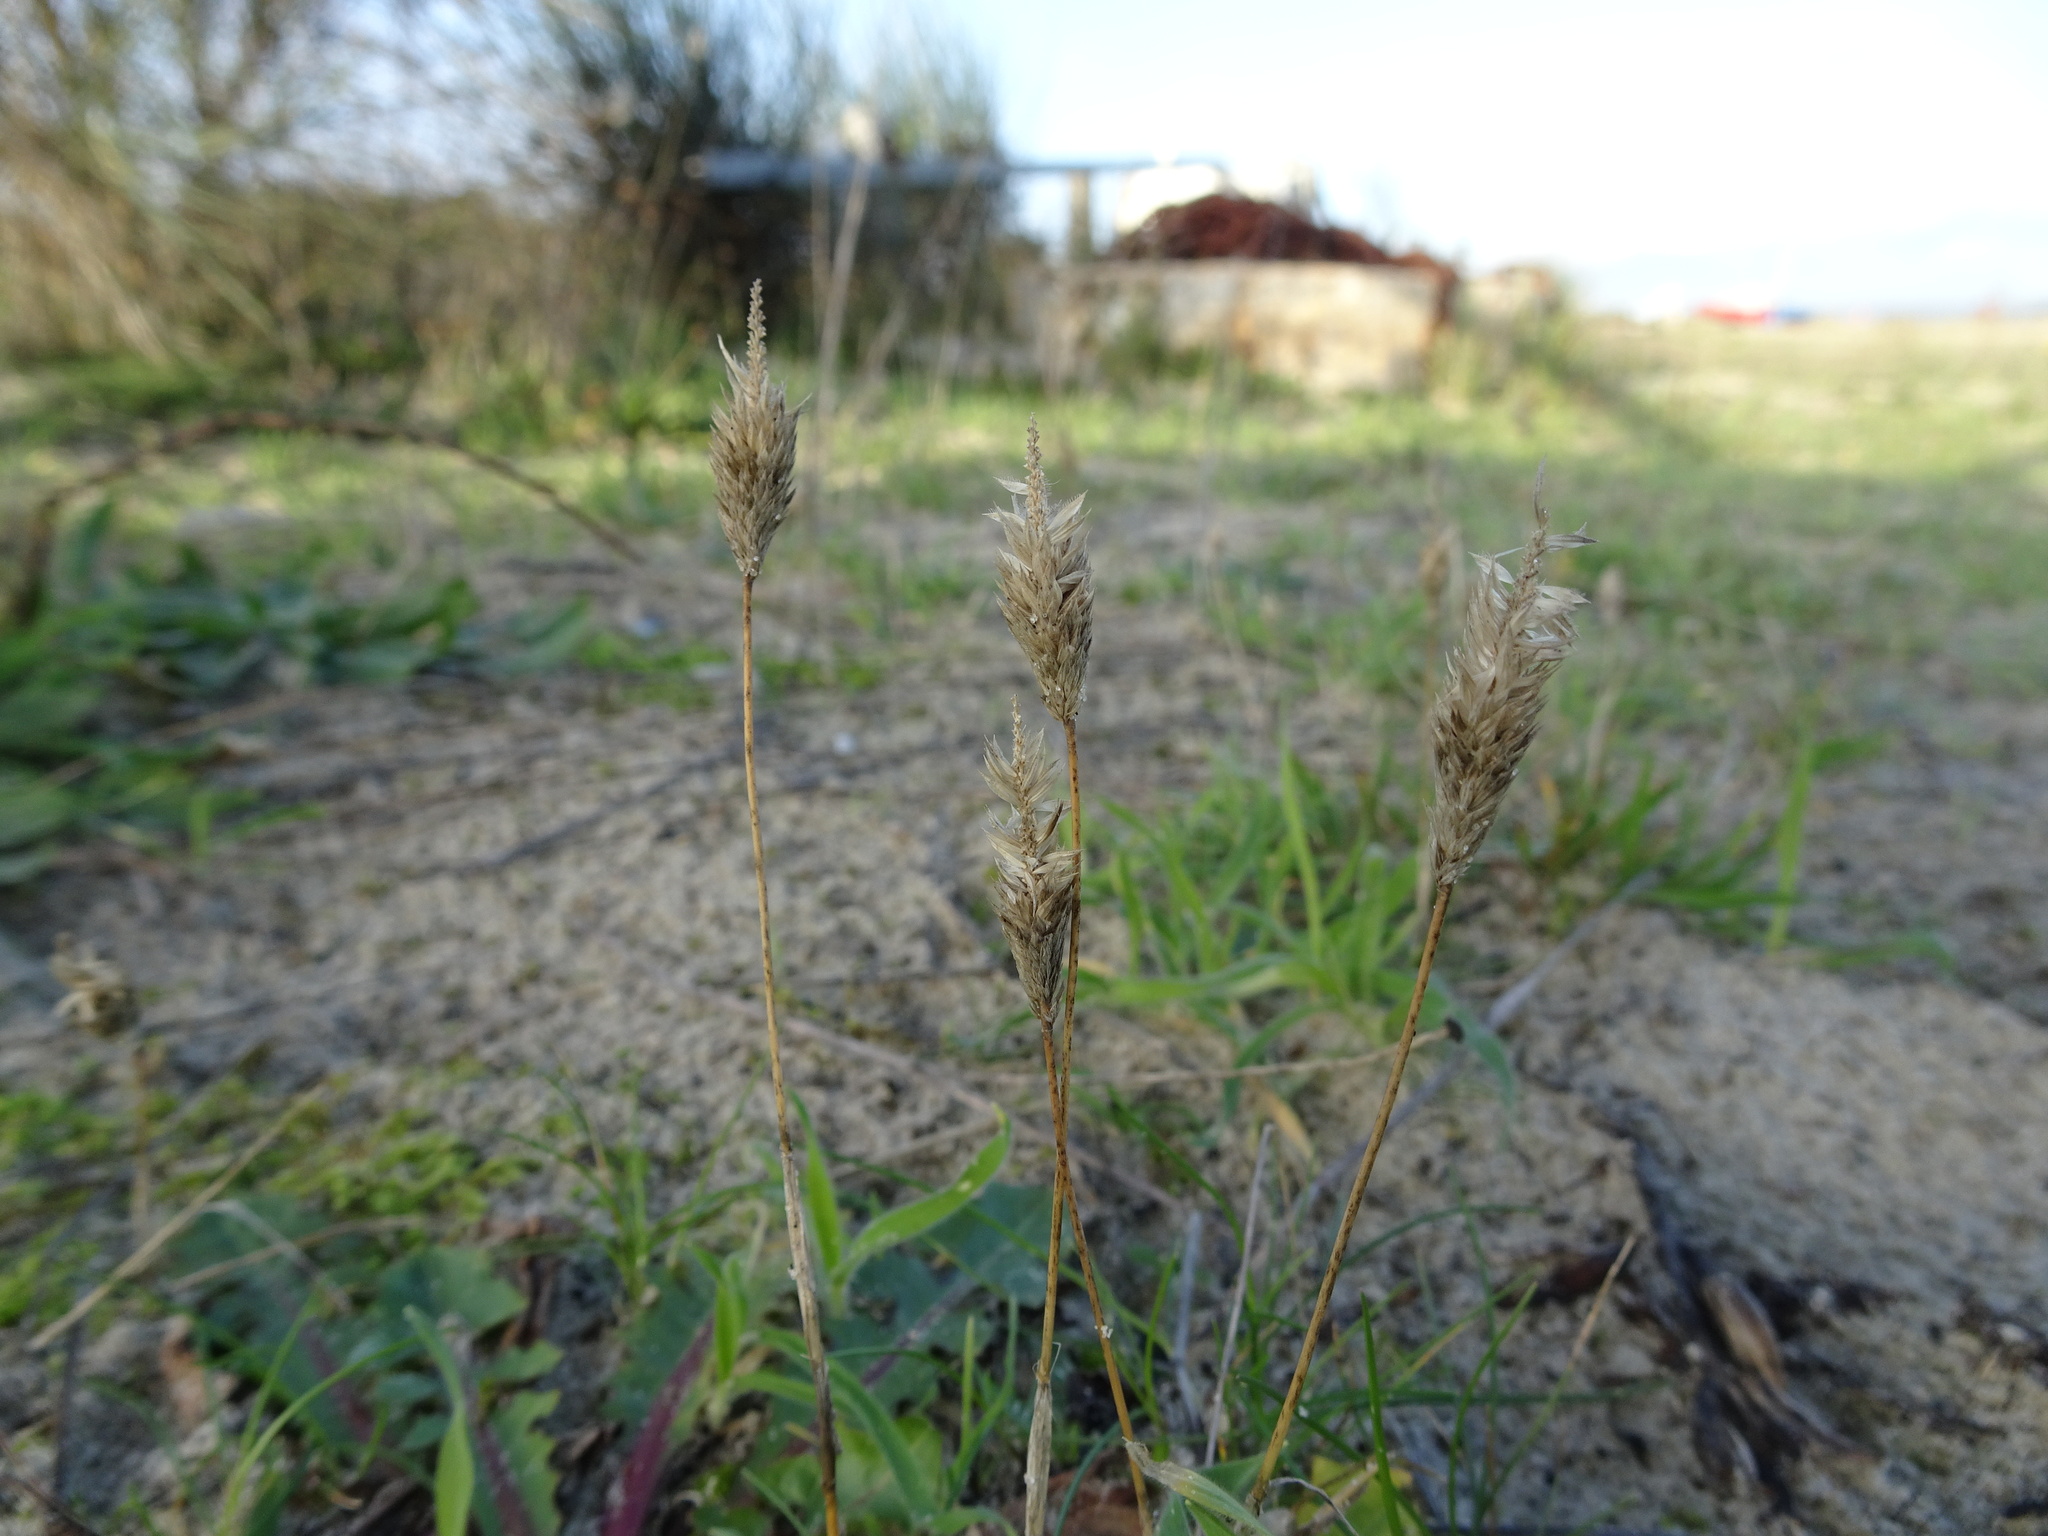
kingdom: Plantae
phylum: Tracheophyta
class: Liliopsida
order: Poales
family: Poaceae
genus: Phleum
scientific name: Phleum arenarium
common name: Sand cat's-tail
